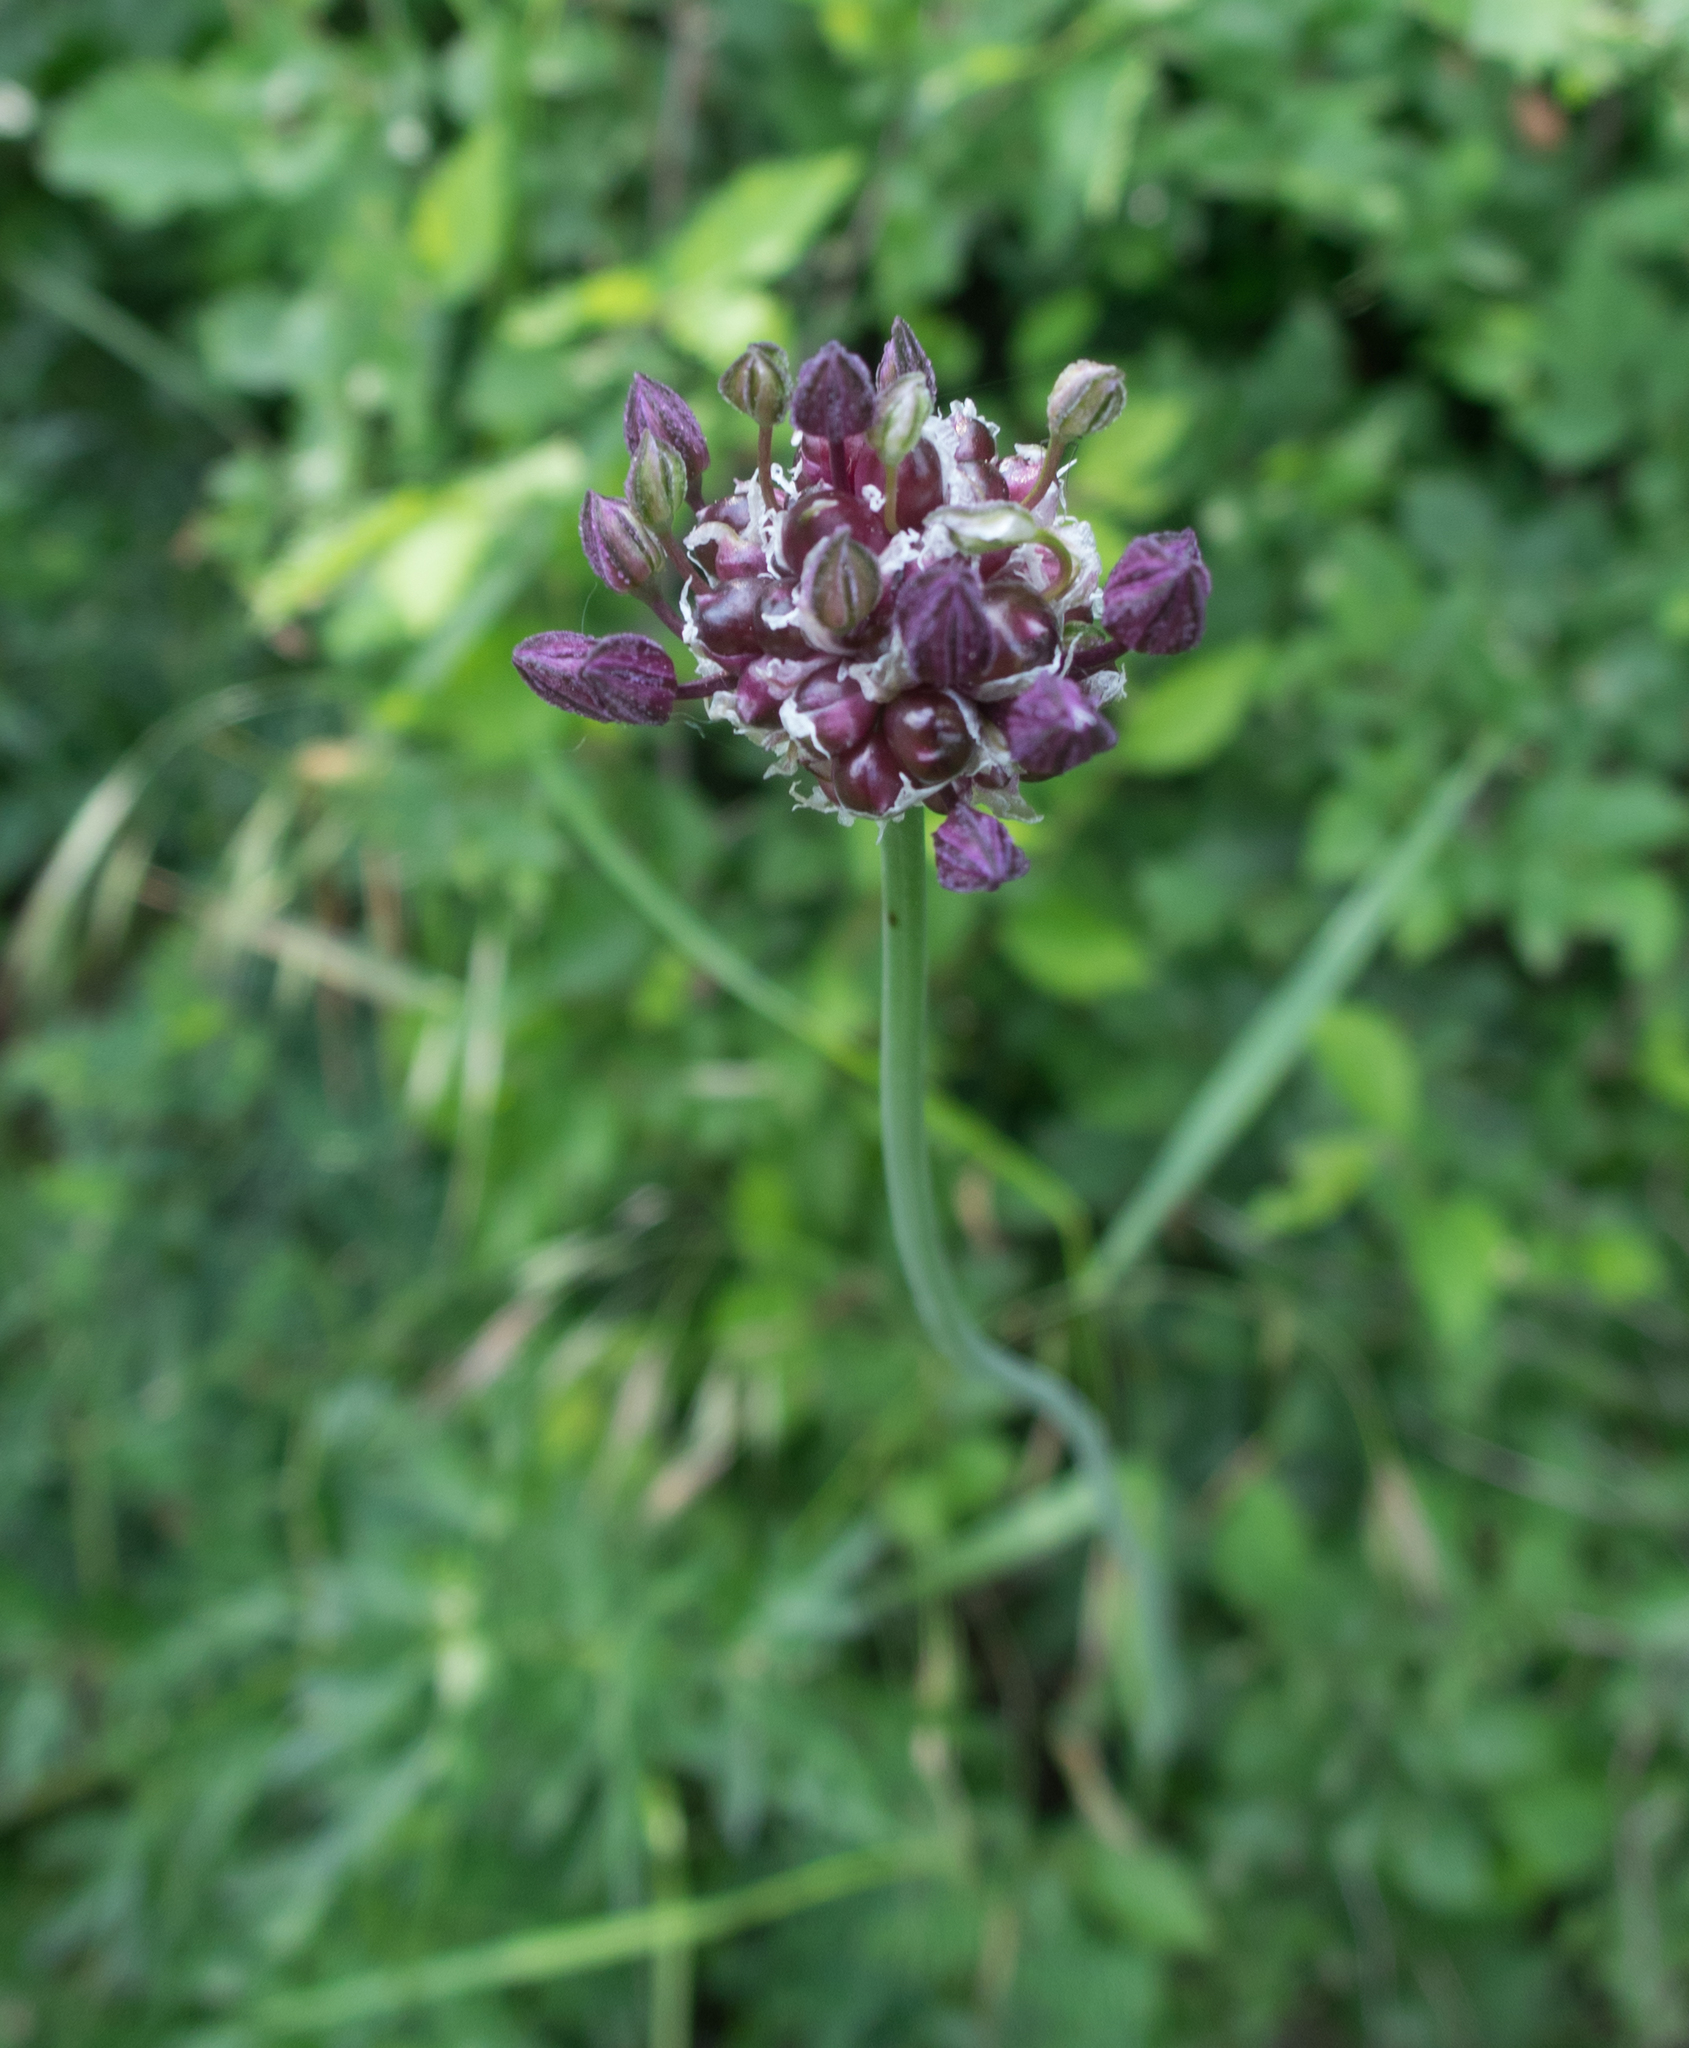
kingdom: Plantae
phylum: Tracheophyta
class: Liliopsida
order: Asparagales
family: Amaryllidaceae
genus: Allium
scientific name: Allium scorodoprasum
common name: Sand leek
